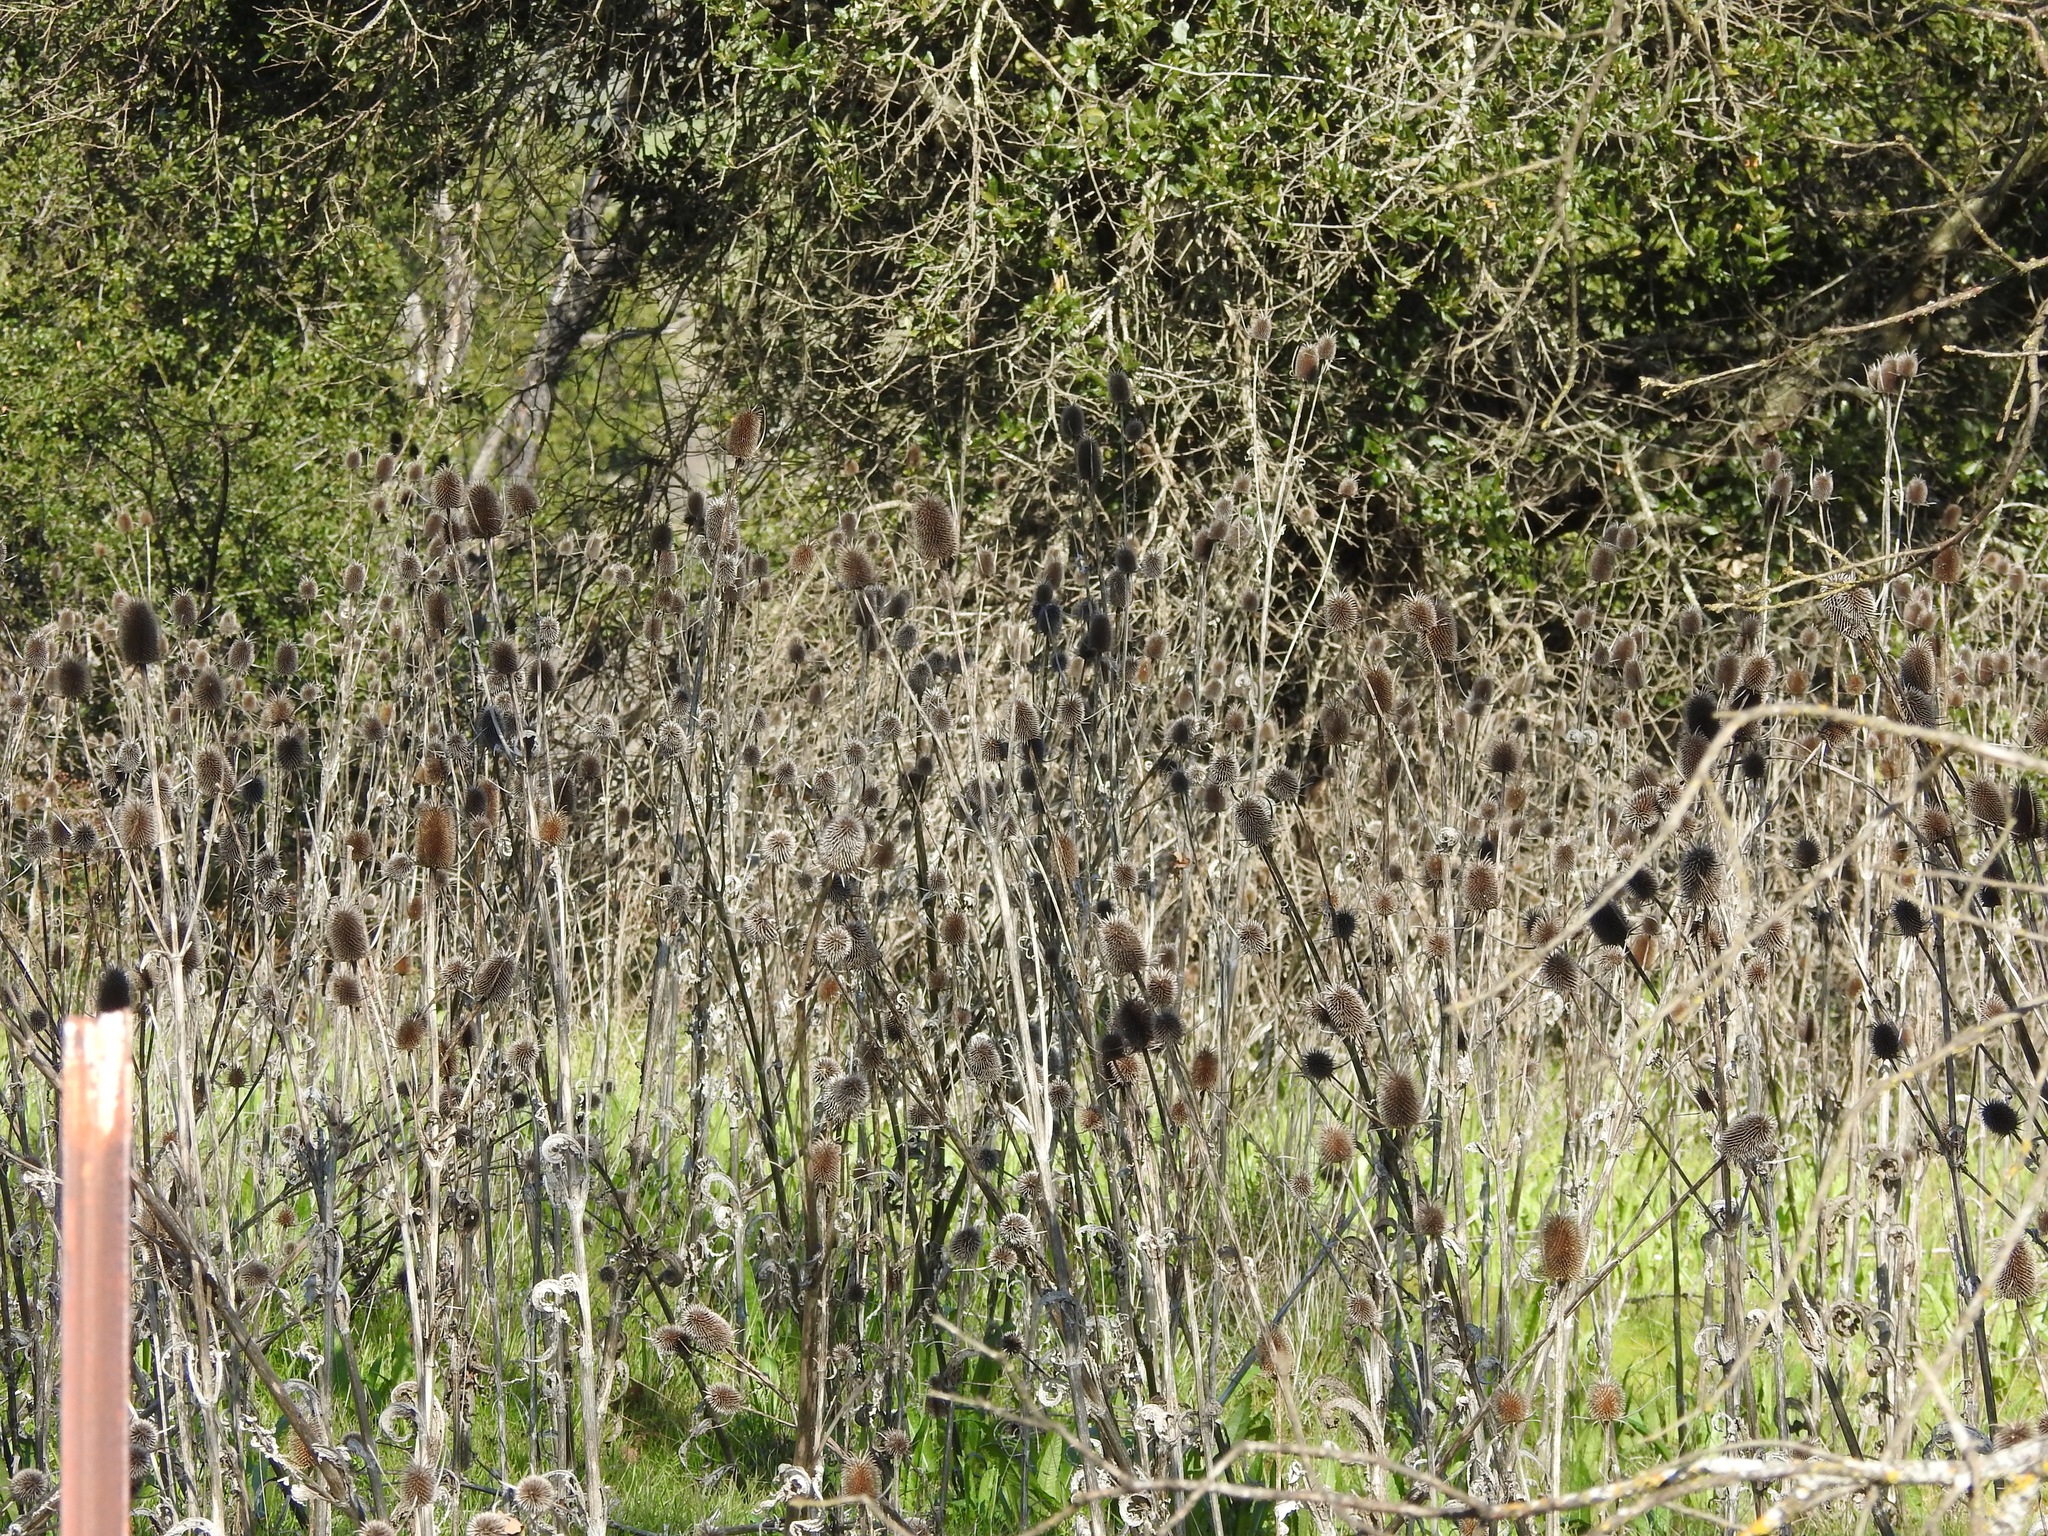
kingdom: Plantae
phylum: Tracheophyta
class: Magnoliopsida
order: Dipsacales
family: Caprifoliaceae
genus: Dipsacus
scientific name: Dipsacus sativus
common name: Fuller's teasel
